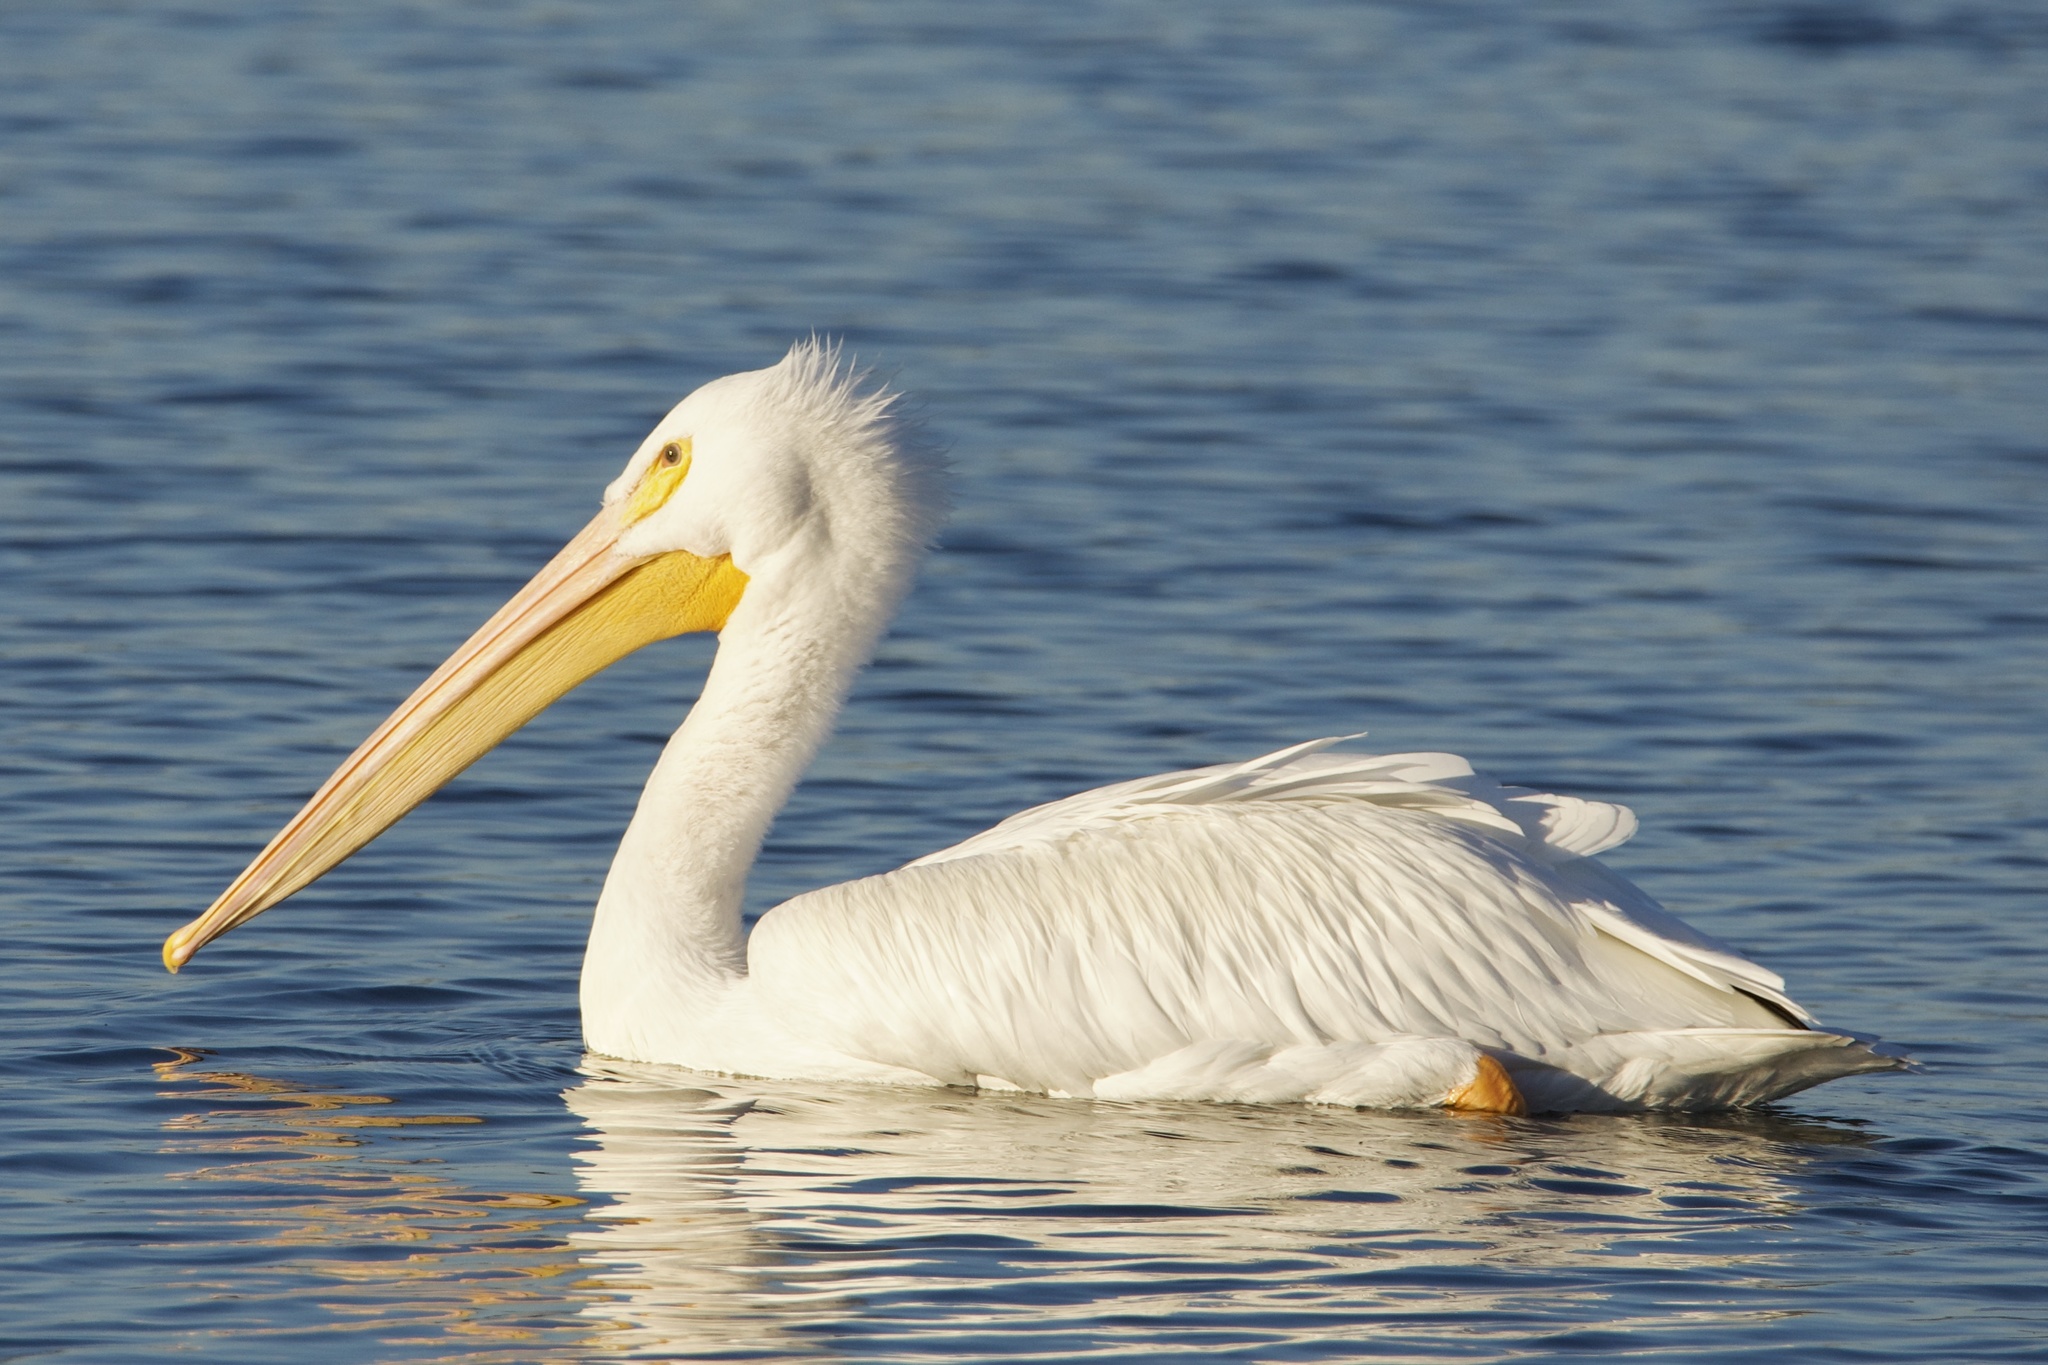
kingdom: Animalia
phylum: Chordata
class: Aves
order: Pelecaniformes
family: Pelecanidae
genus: Pelecanus
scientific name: Pelecanus erythrorhynchos
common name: American white pelican
